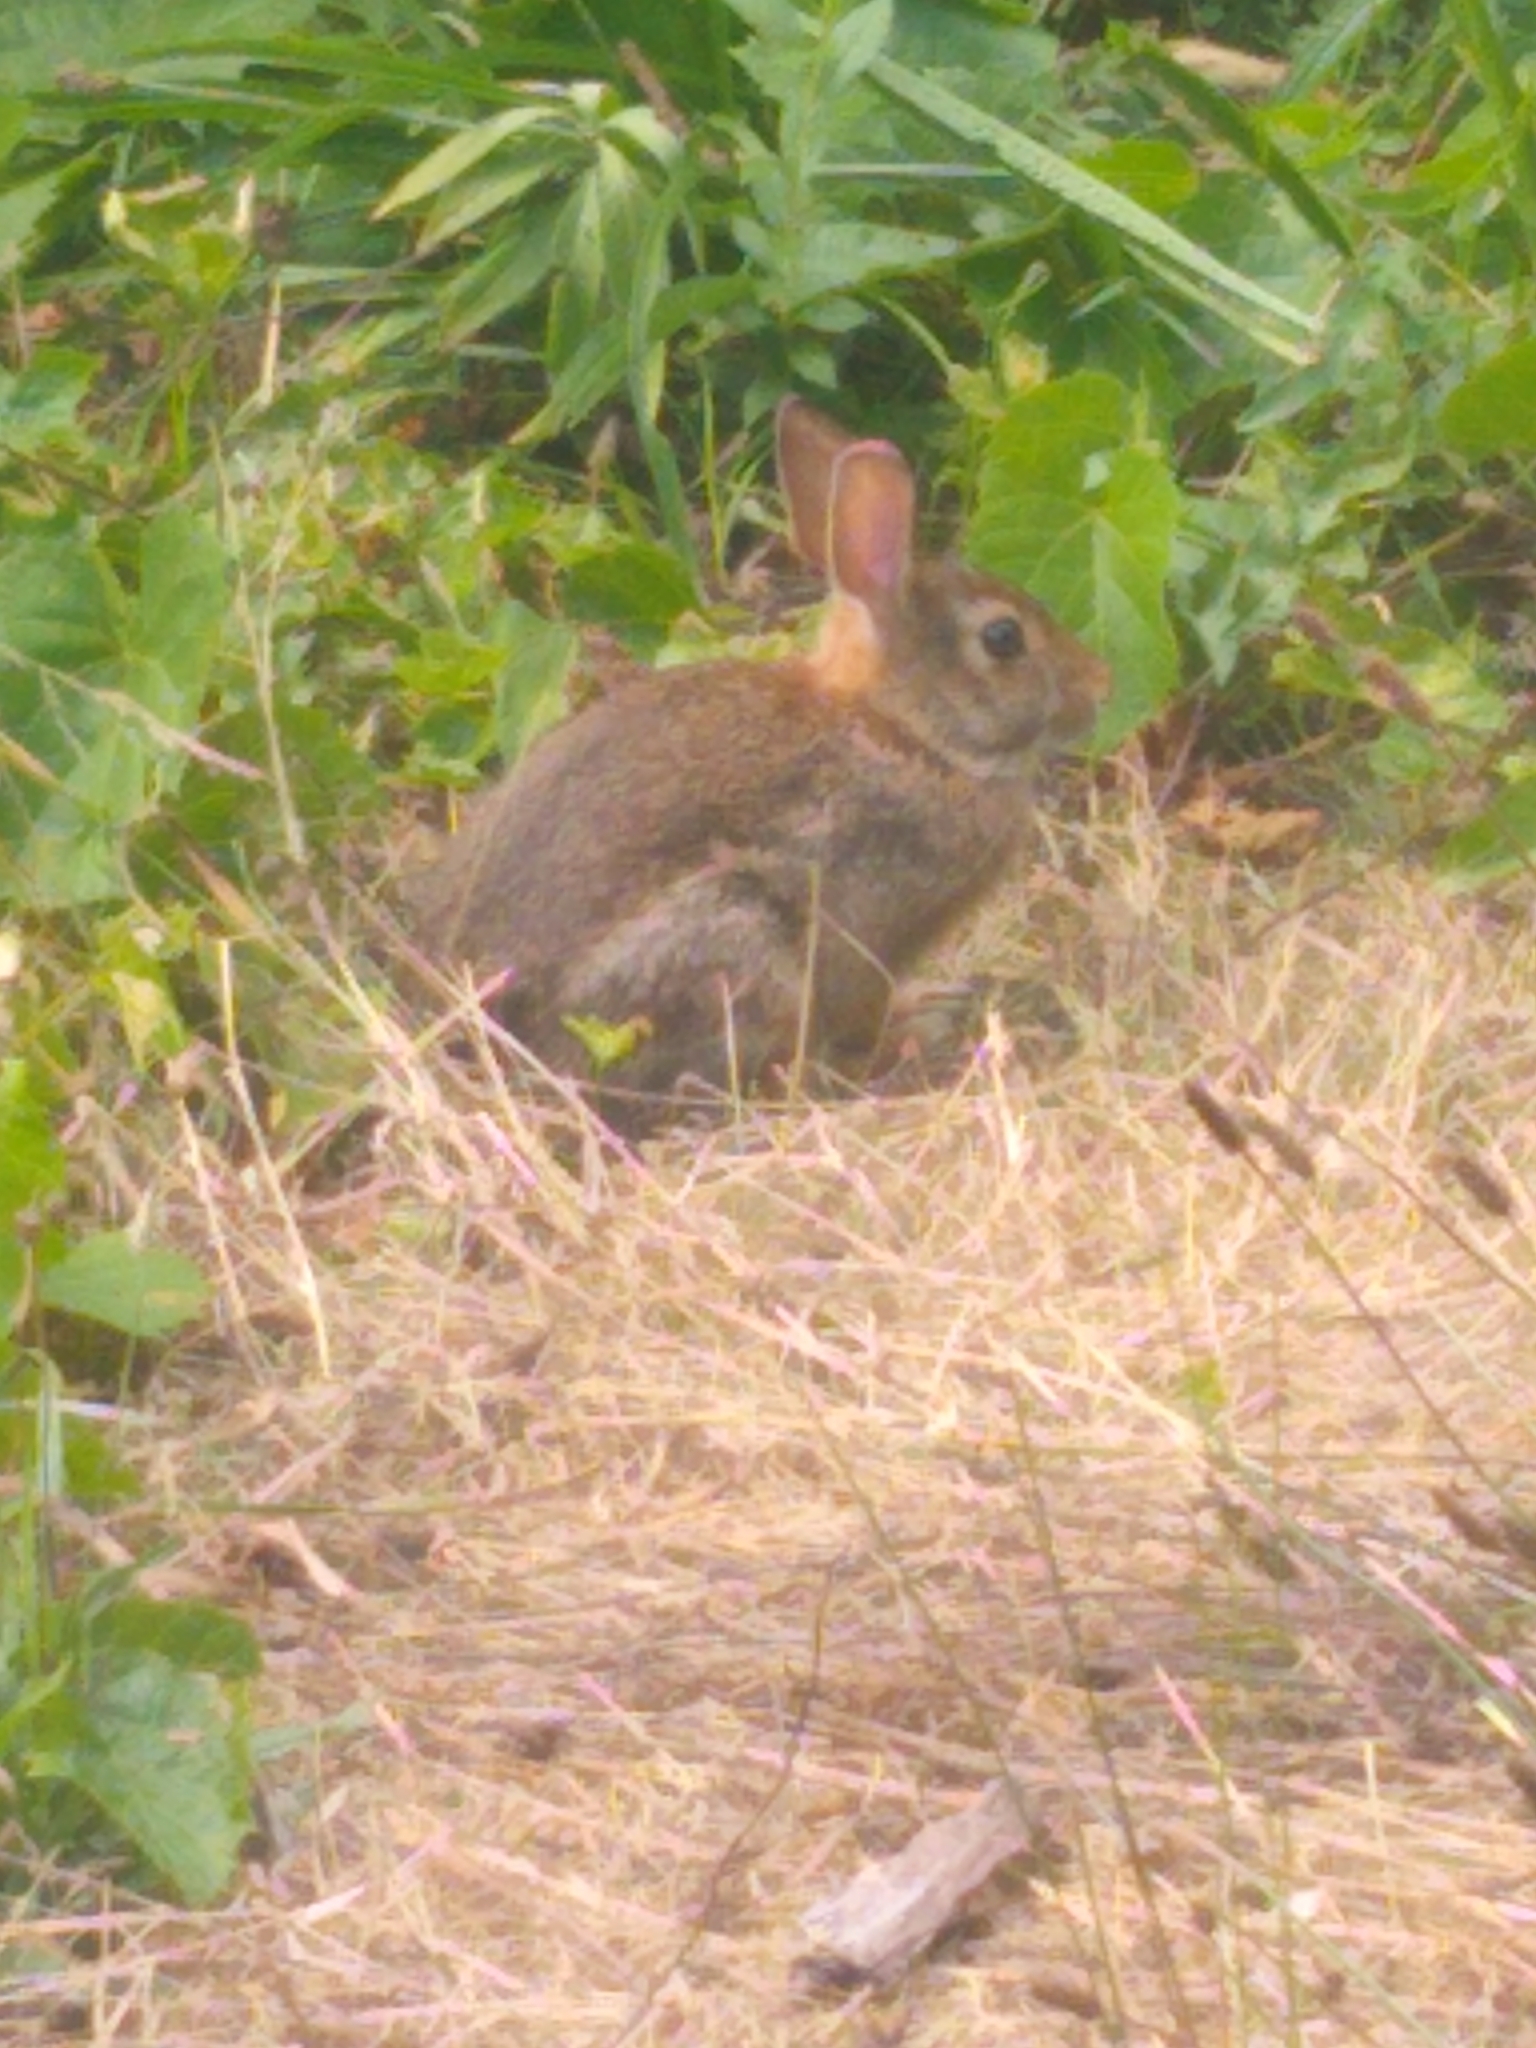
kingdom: Animalia
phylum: Chordata
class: Mammalia
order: Lagomorpha
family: Leporidae
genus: Sylvilagus
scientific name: Sylvilagus floridanus
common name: Eastern cottontail
